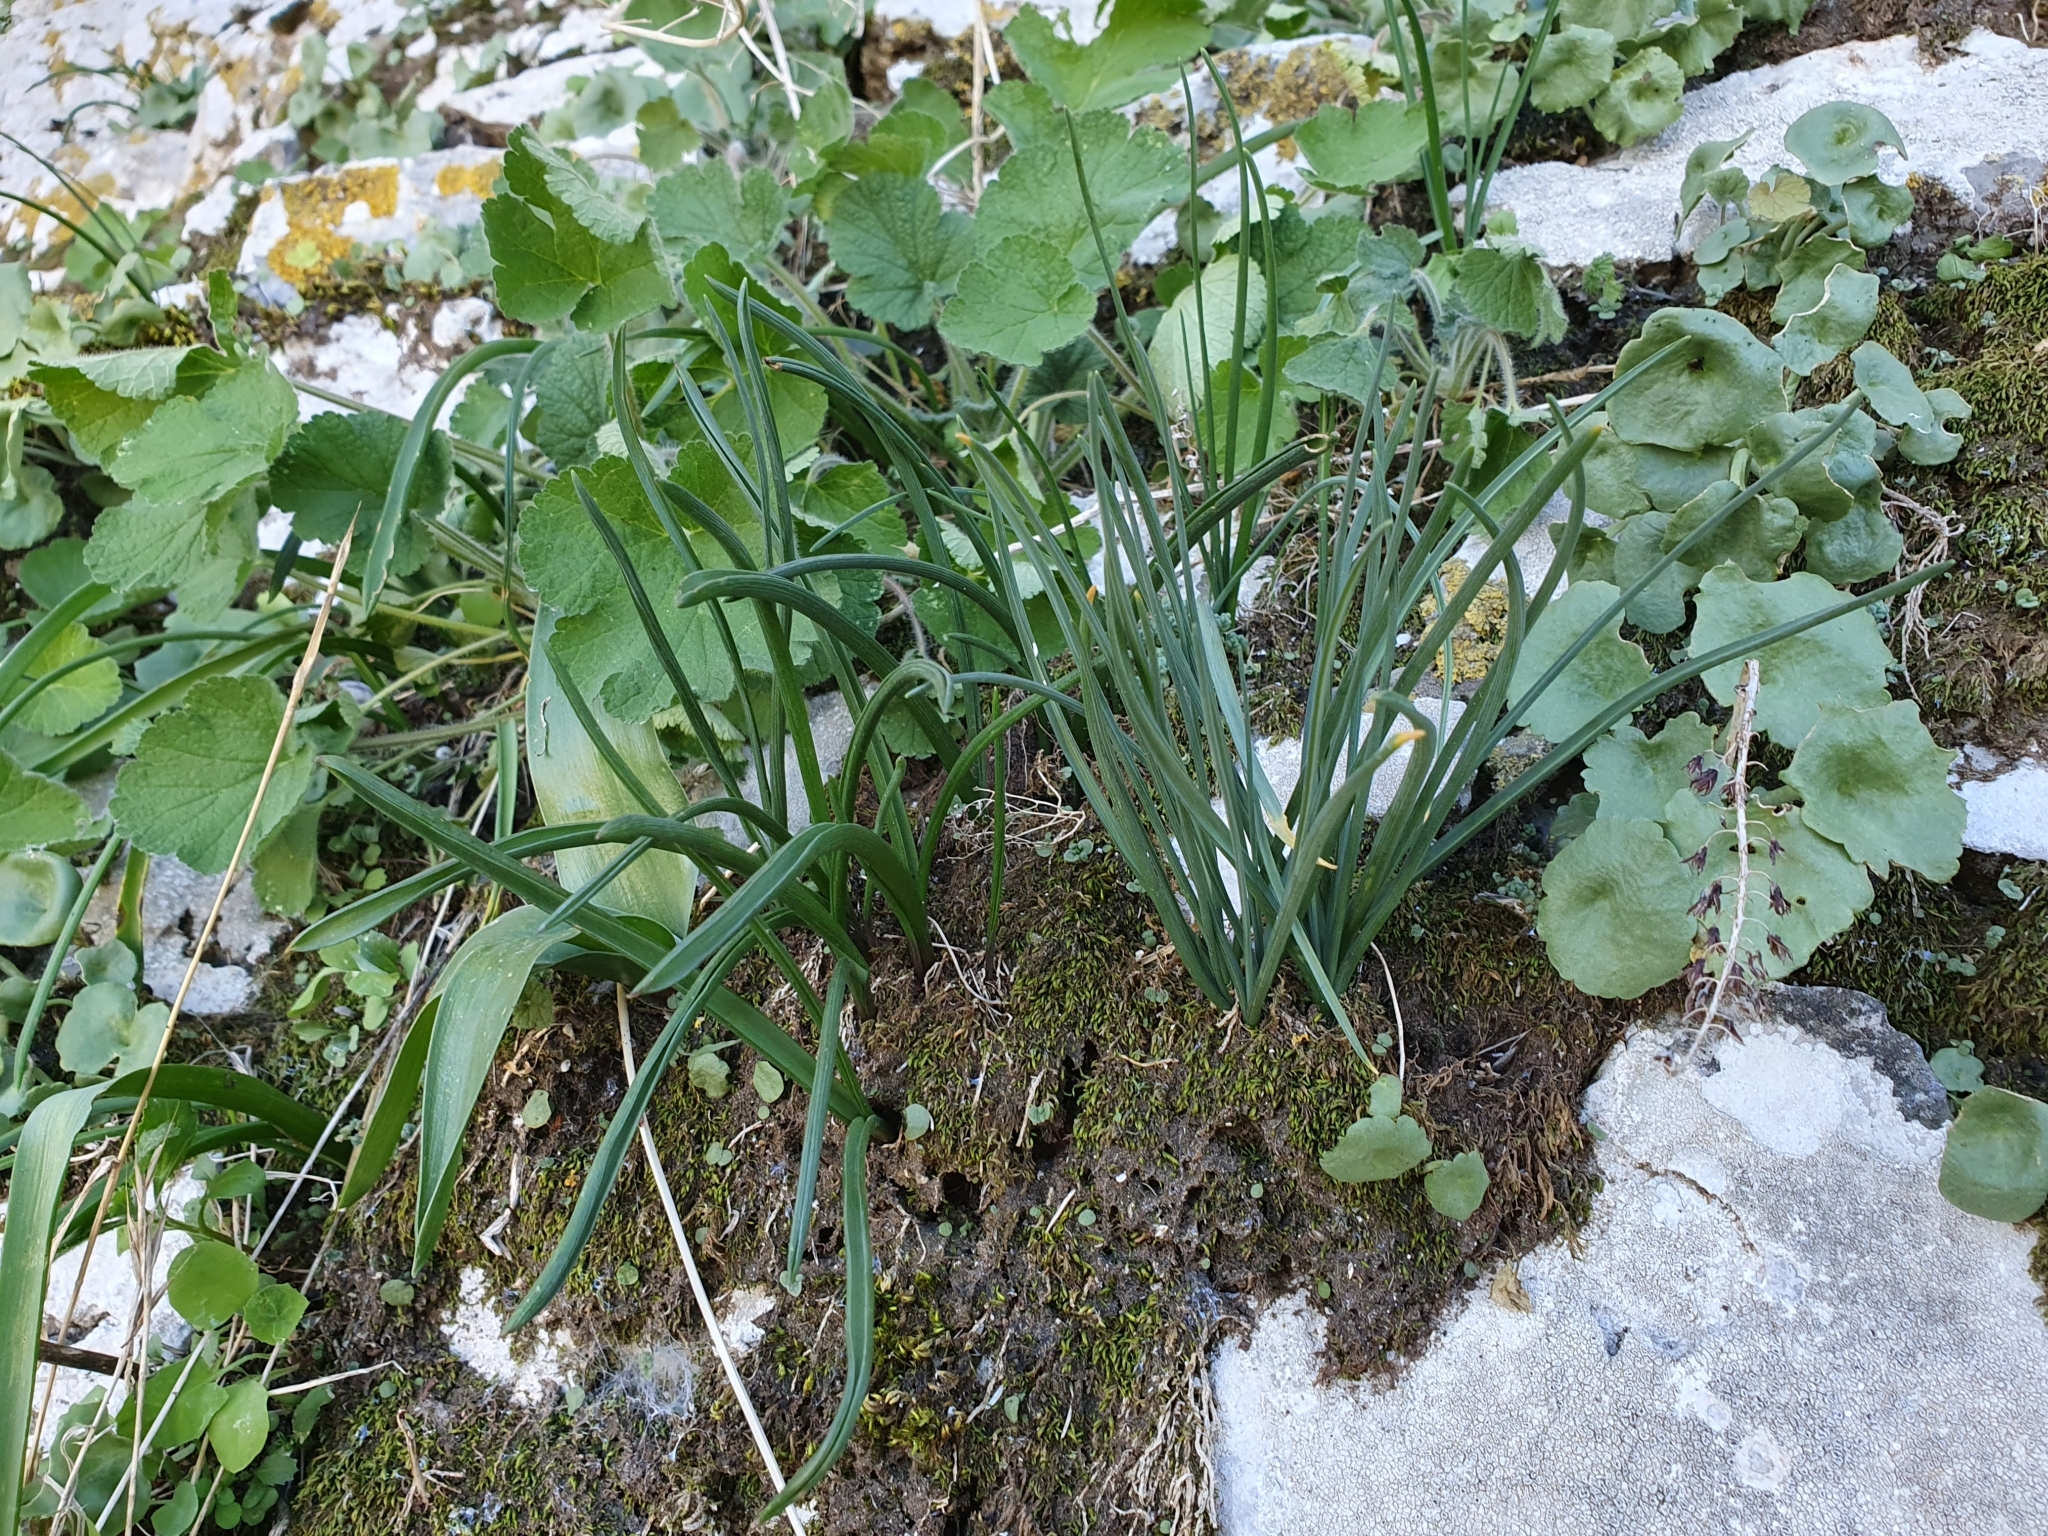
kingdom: Plantae
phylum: Tracheophyta
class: Liliopsida
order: Asparagales
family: Asparagaceae
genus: Muscari
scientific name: Muscari comosum
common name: Tassel hyacinth
